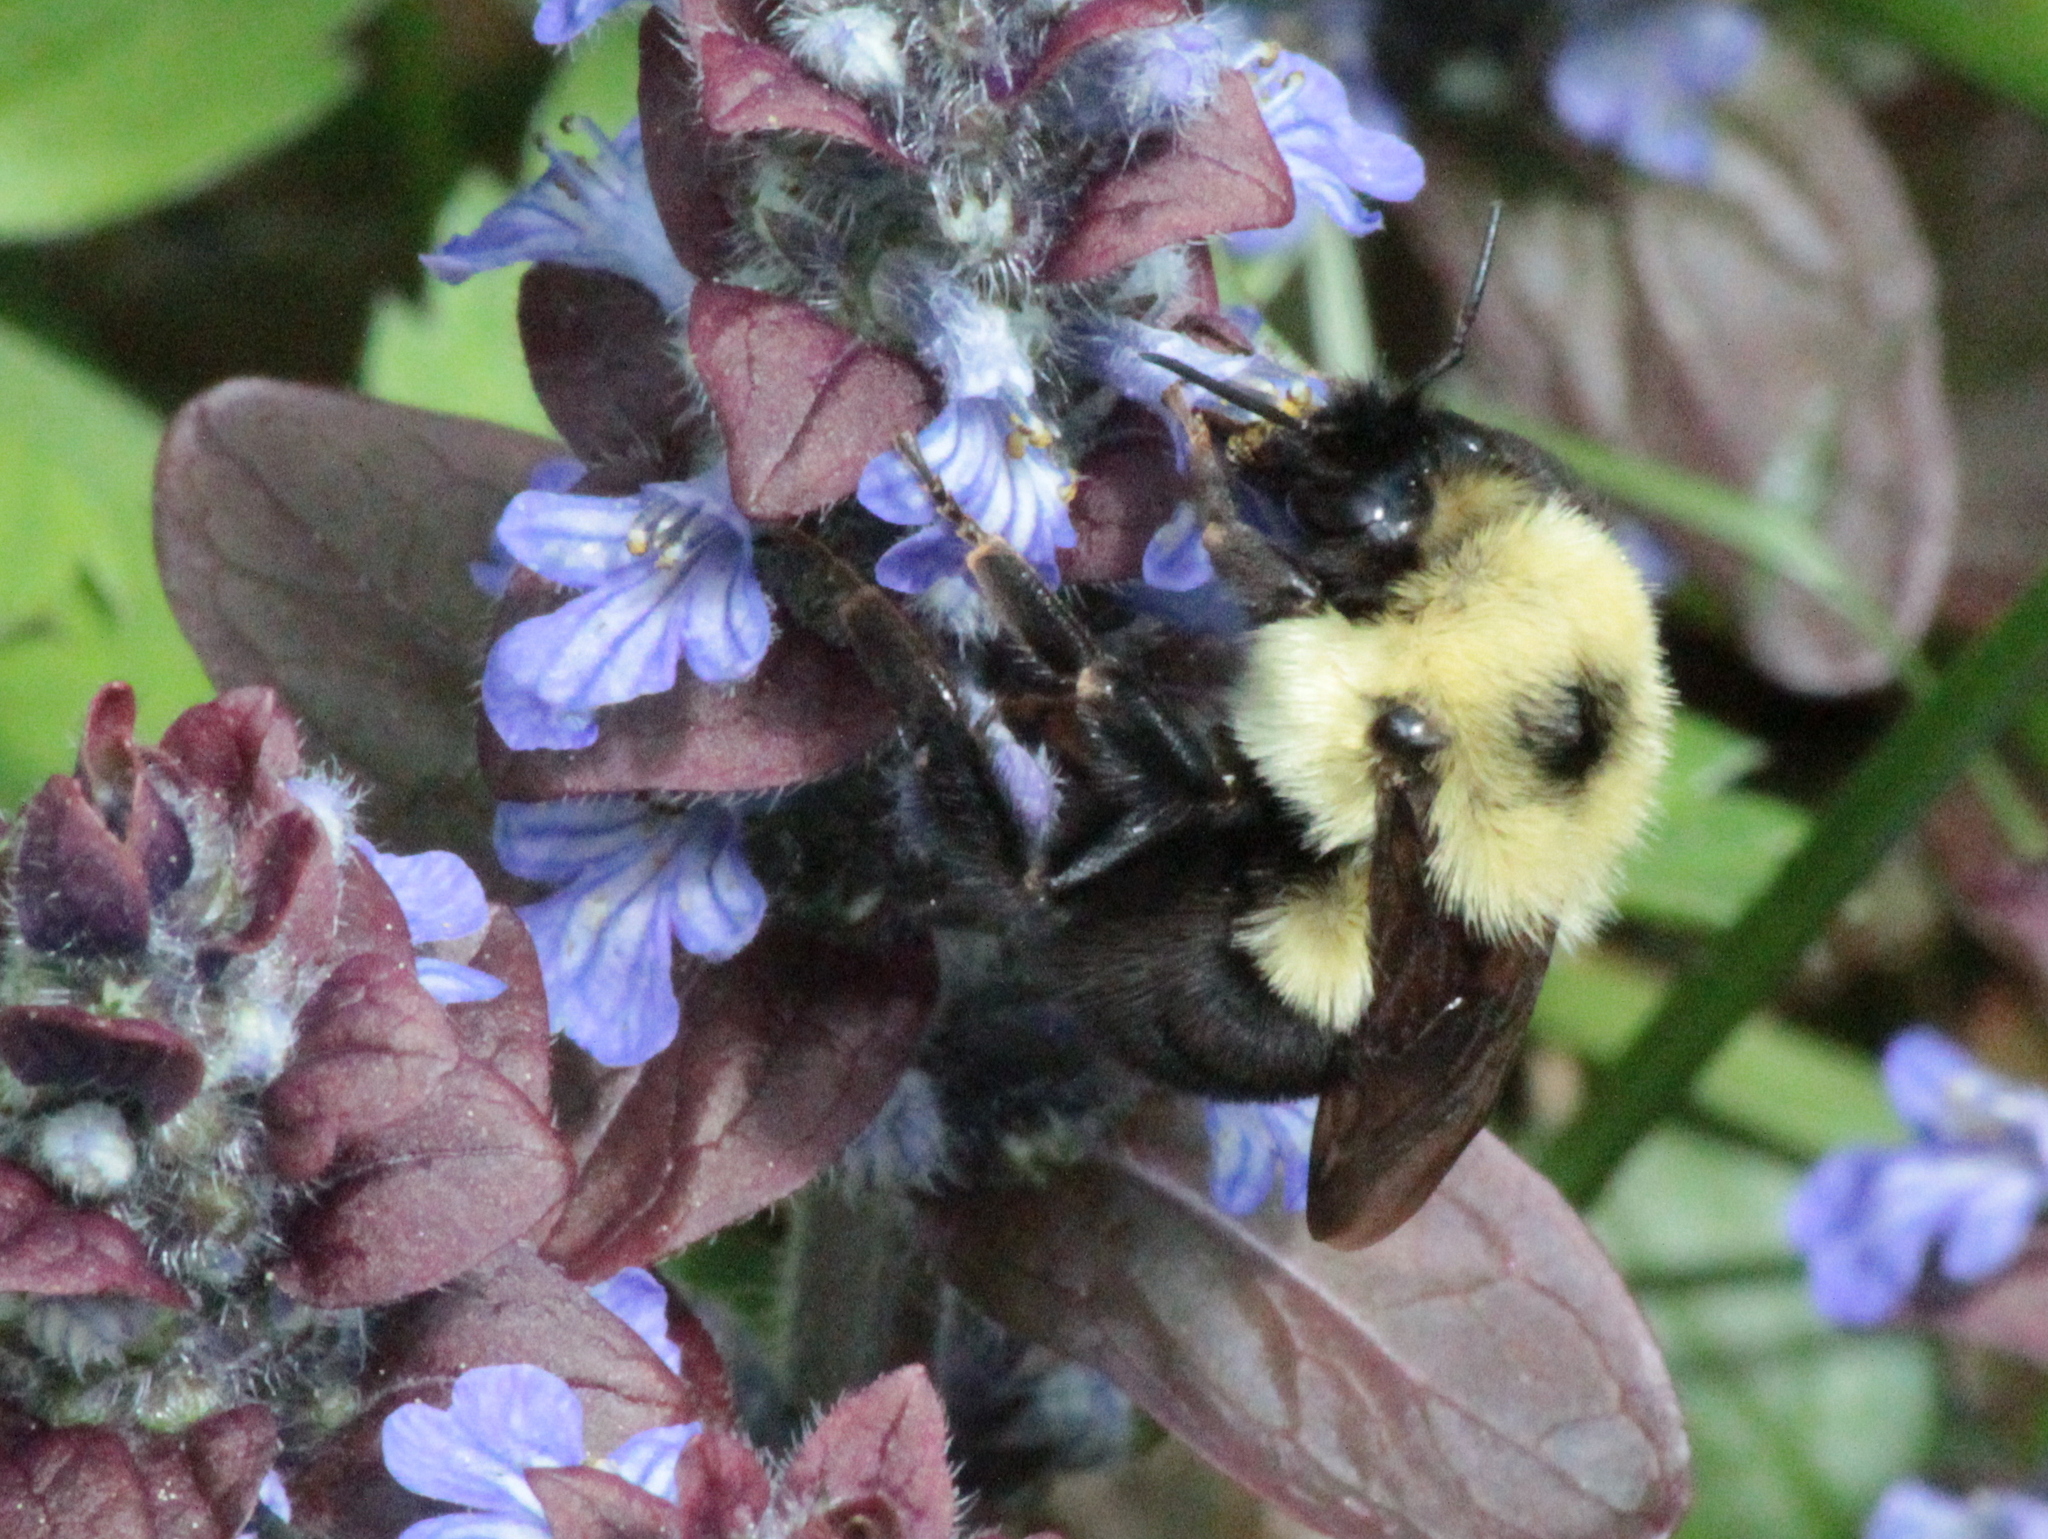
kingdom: Animalia
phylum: Arthropoda
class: Insecta
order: Hymenoptera
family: Apidae
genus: Bombus
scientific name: Bombus bimaculatus
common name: Two-spotted bumble bee
